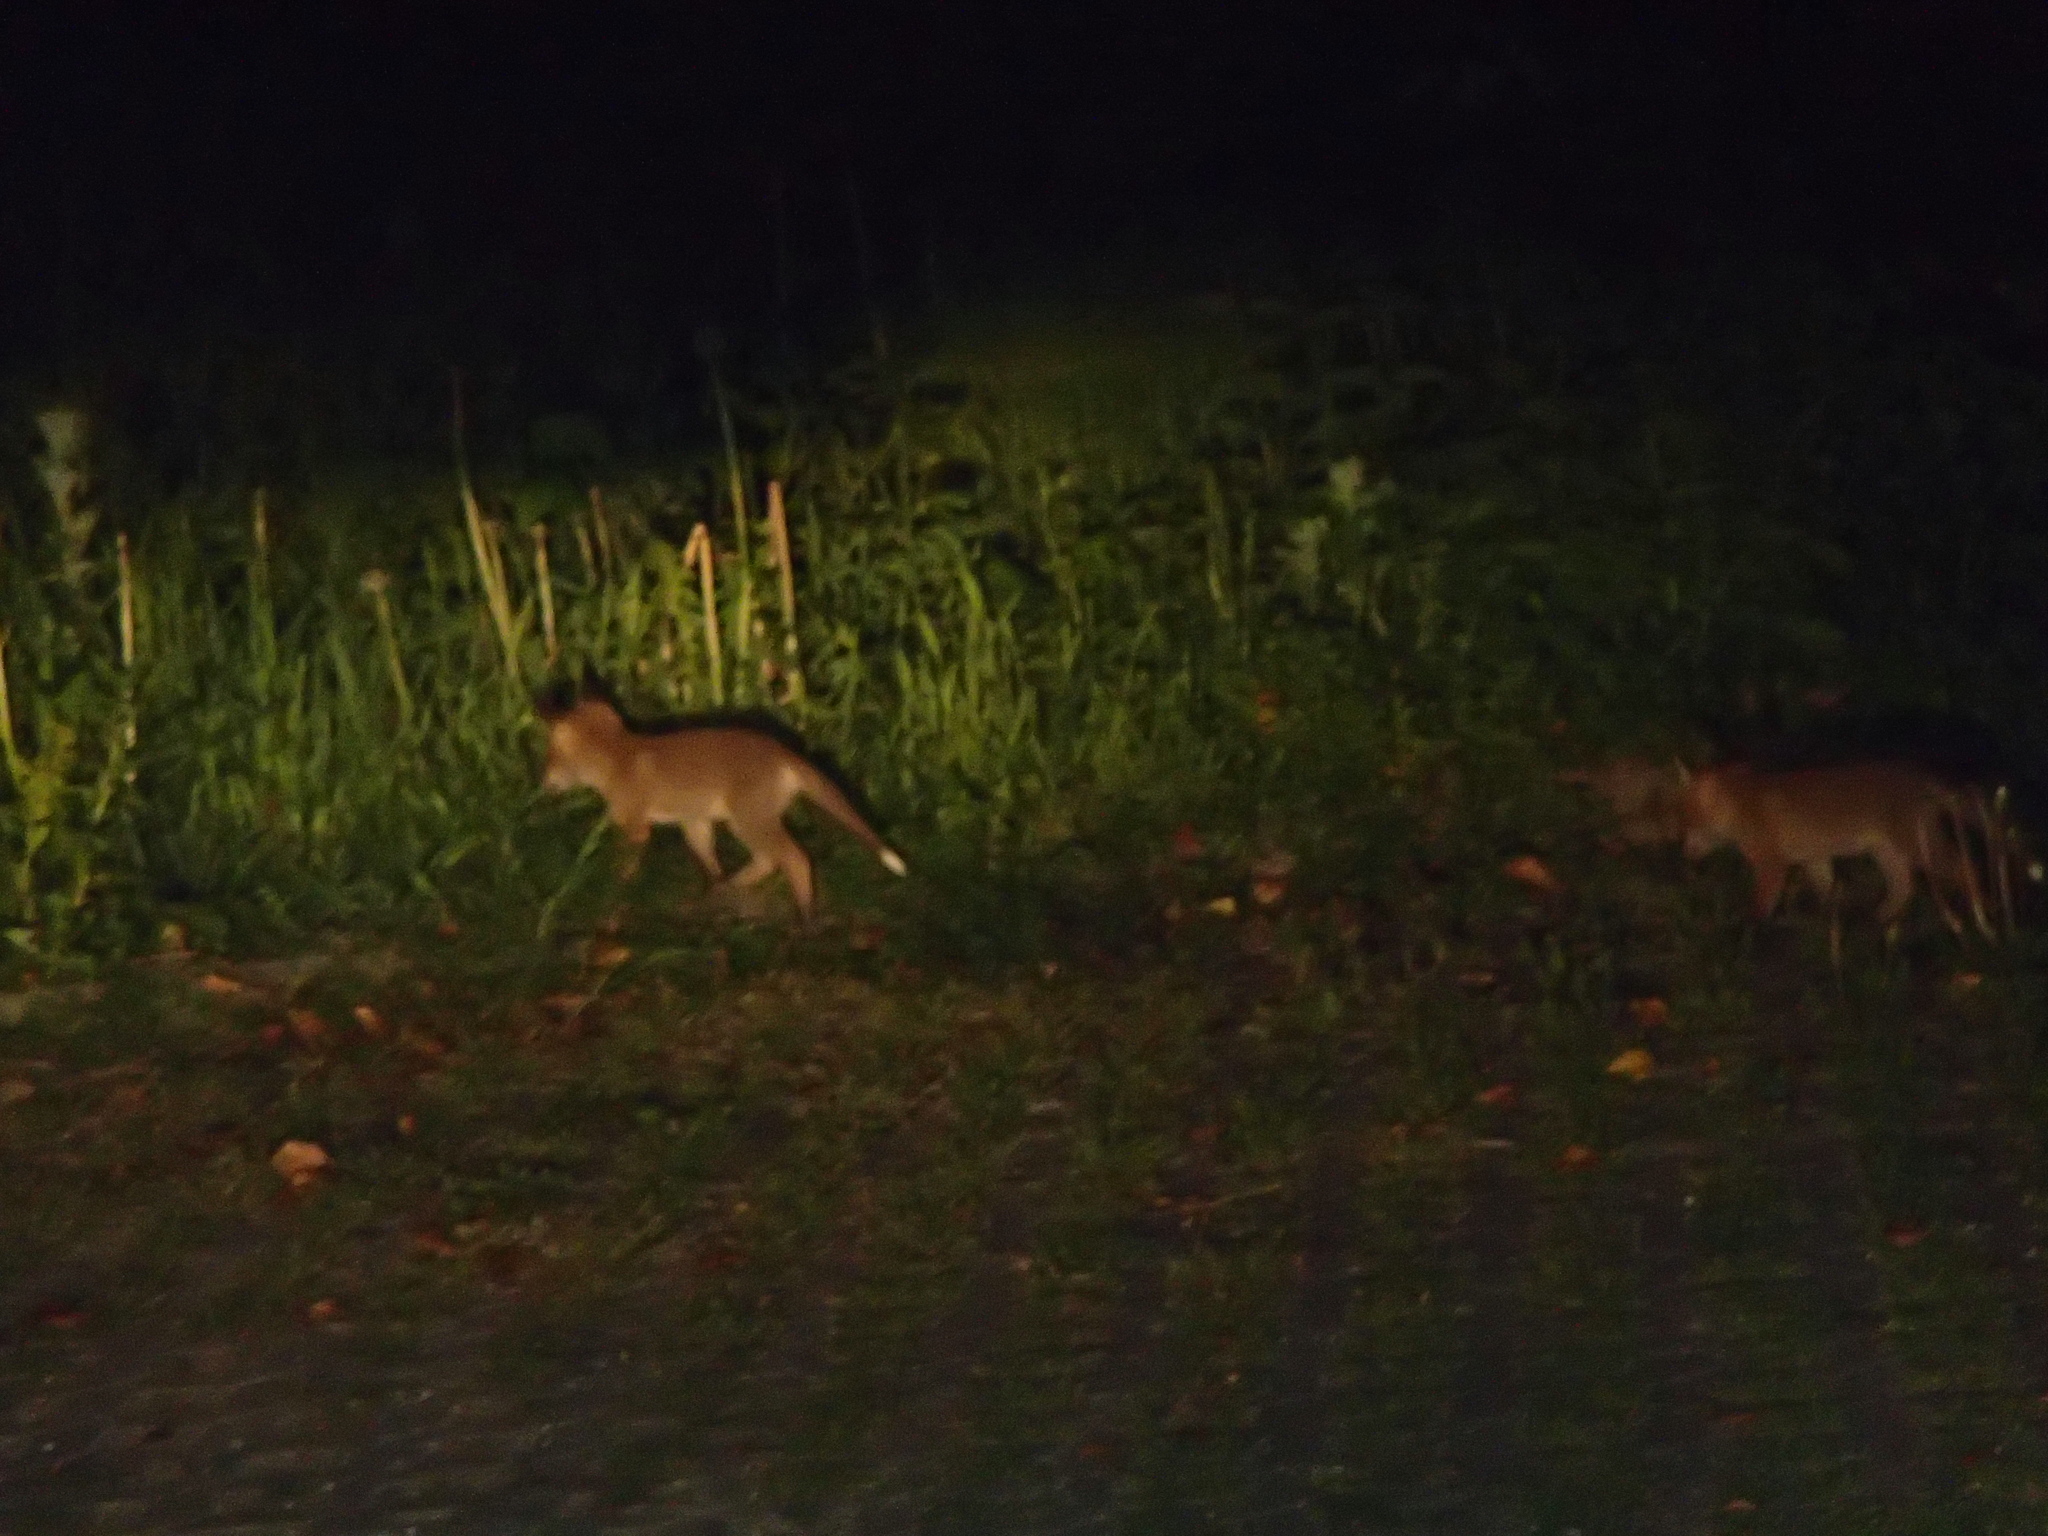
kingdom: Animalia
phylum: Chordata
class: Mammalia
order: Carnivora
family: Canidae
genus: Vulpes
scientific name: Vulpes vulpes
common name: Red fox
